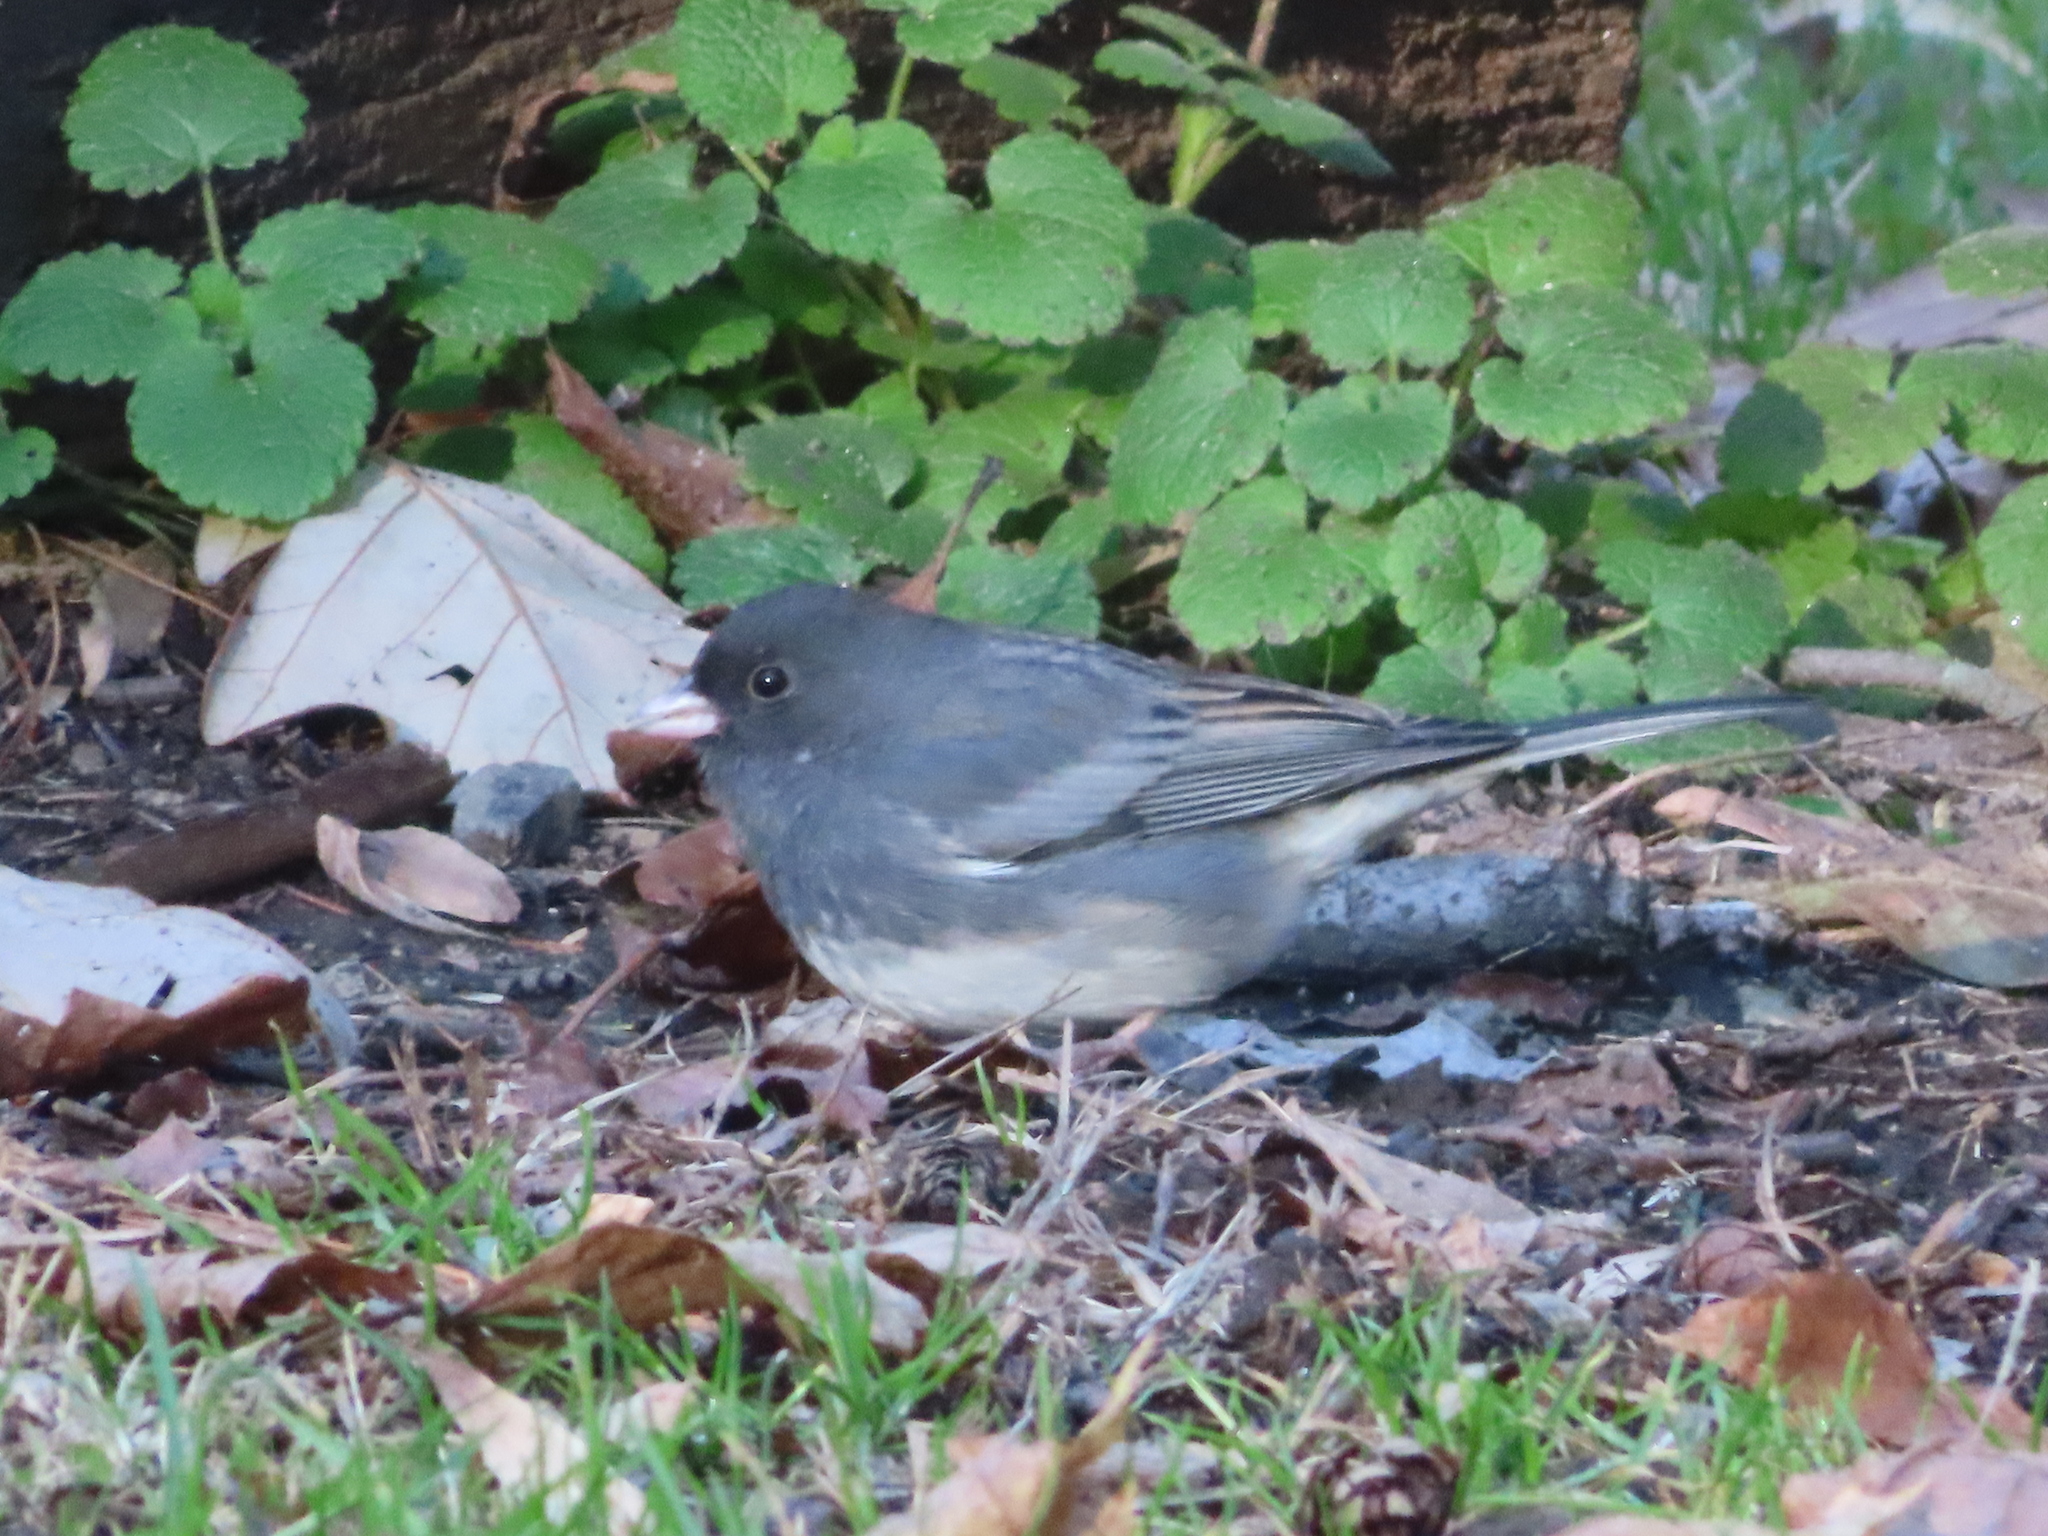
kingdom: Animalia
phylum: Chordata
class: Aves
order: Passeriformes
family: Passerellidae
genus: Junco
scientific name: Junco hyemalis
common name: Dark-eyed junco
